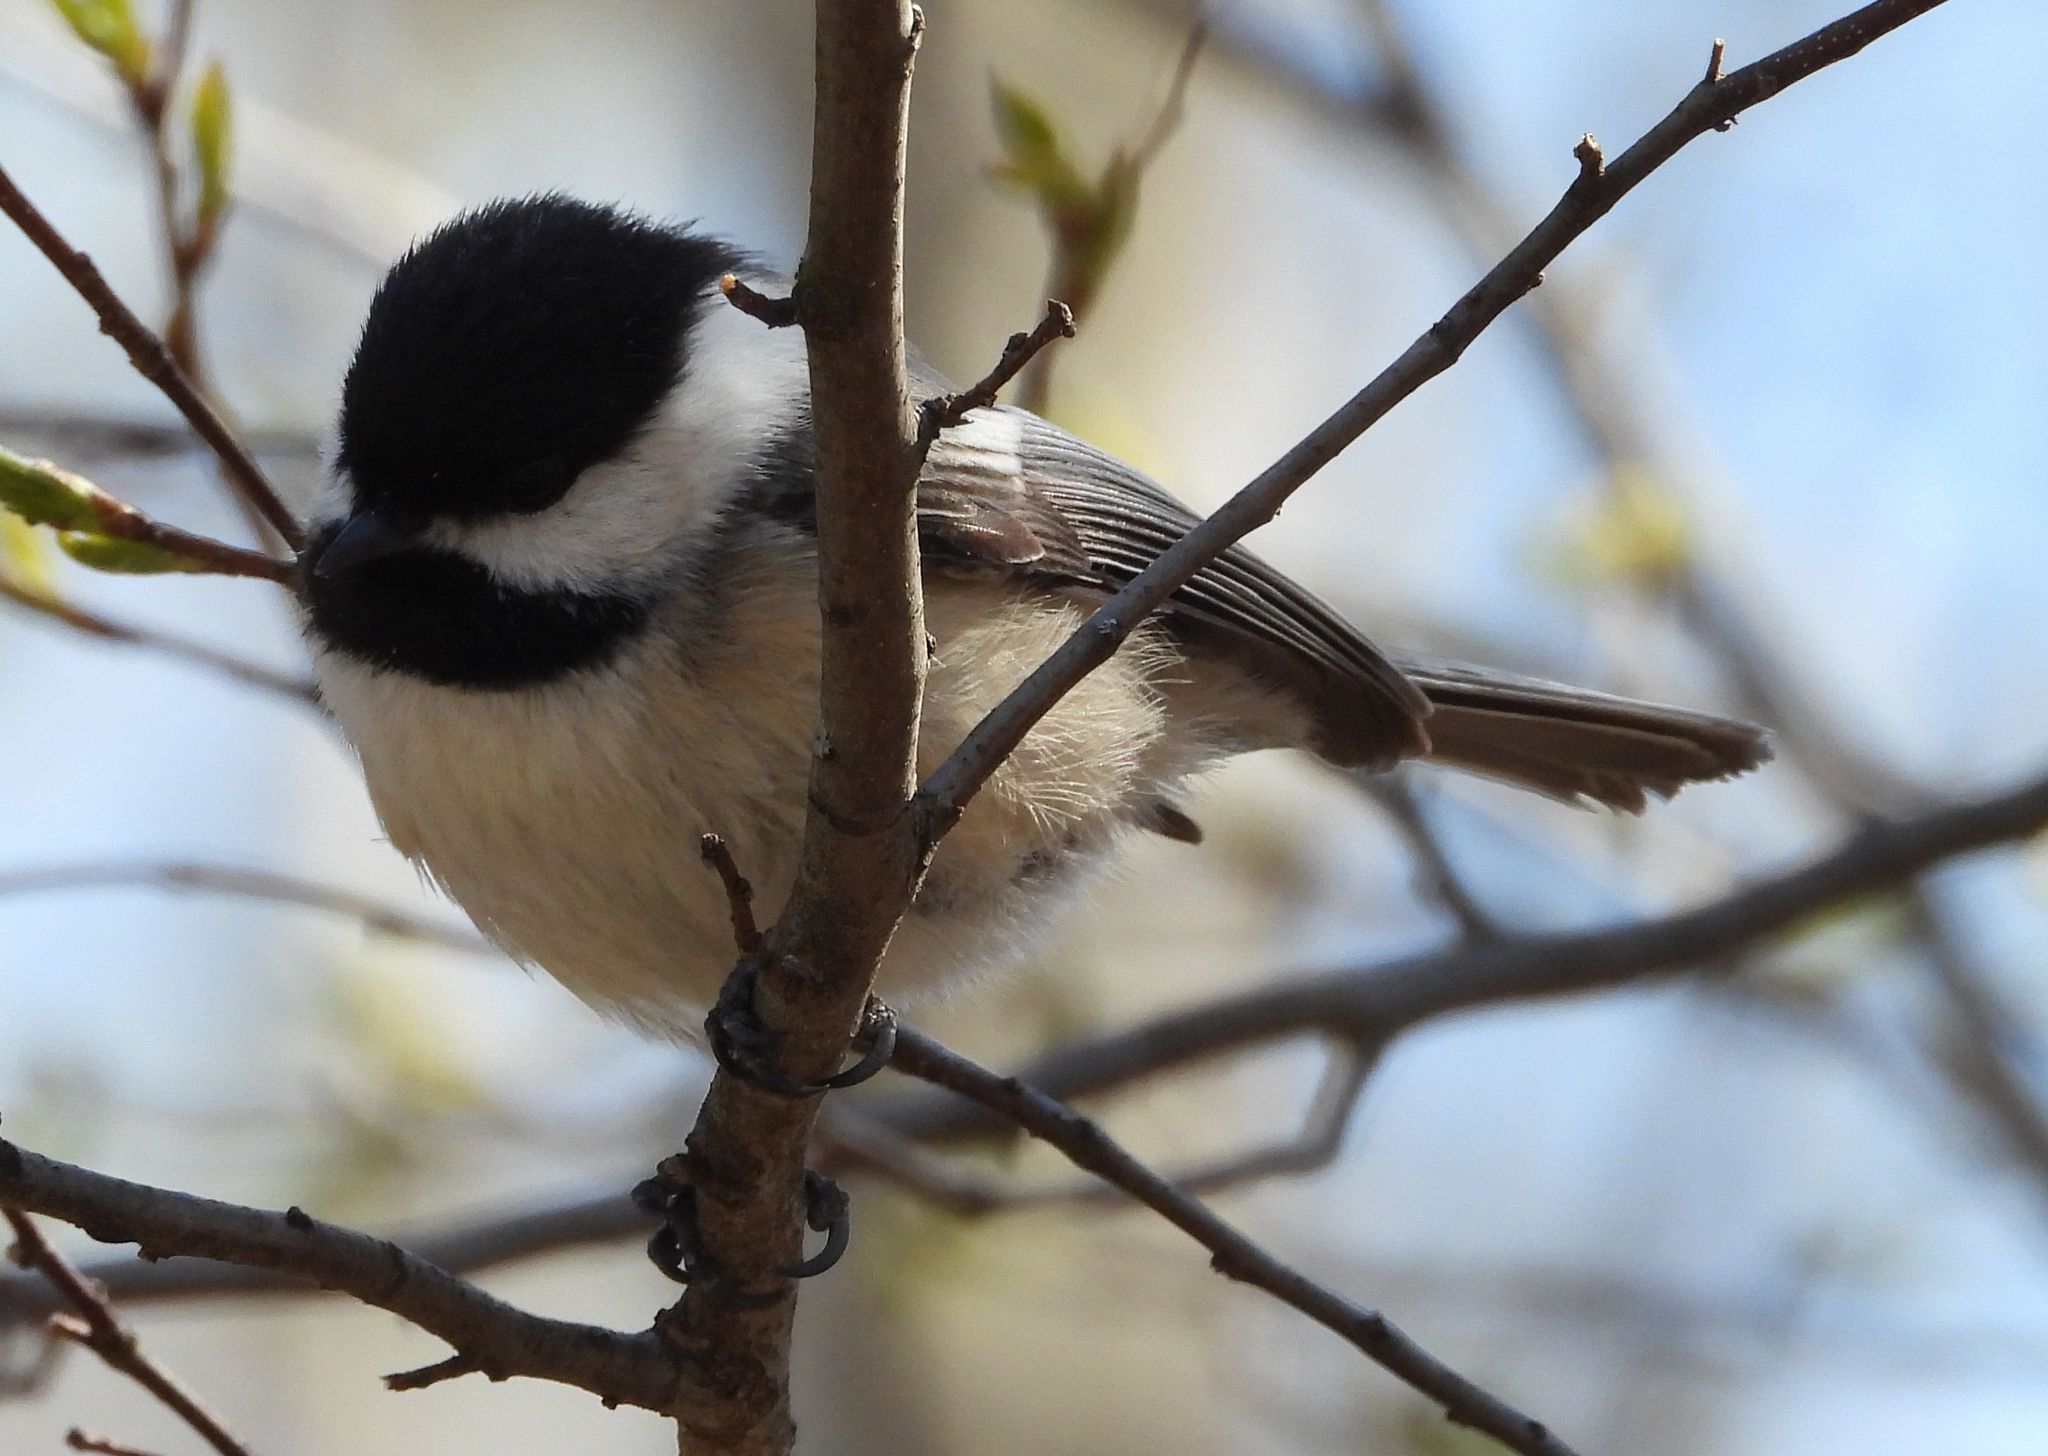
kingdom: Animalia
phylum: Chordata
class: Aves
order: Passeriformes
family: Paridae
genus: Poecile
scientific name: Poecile atricapillus
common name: Black-capped chickadee
